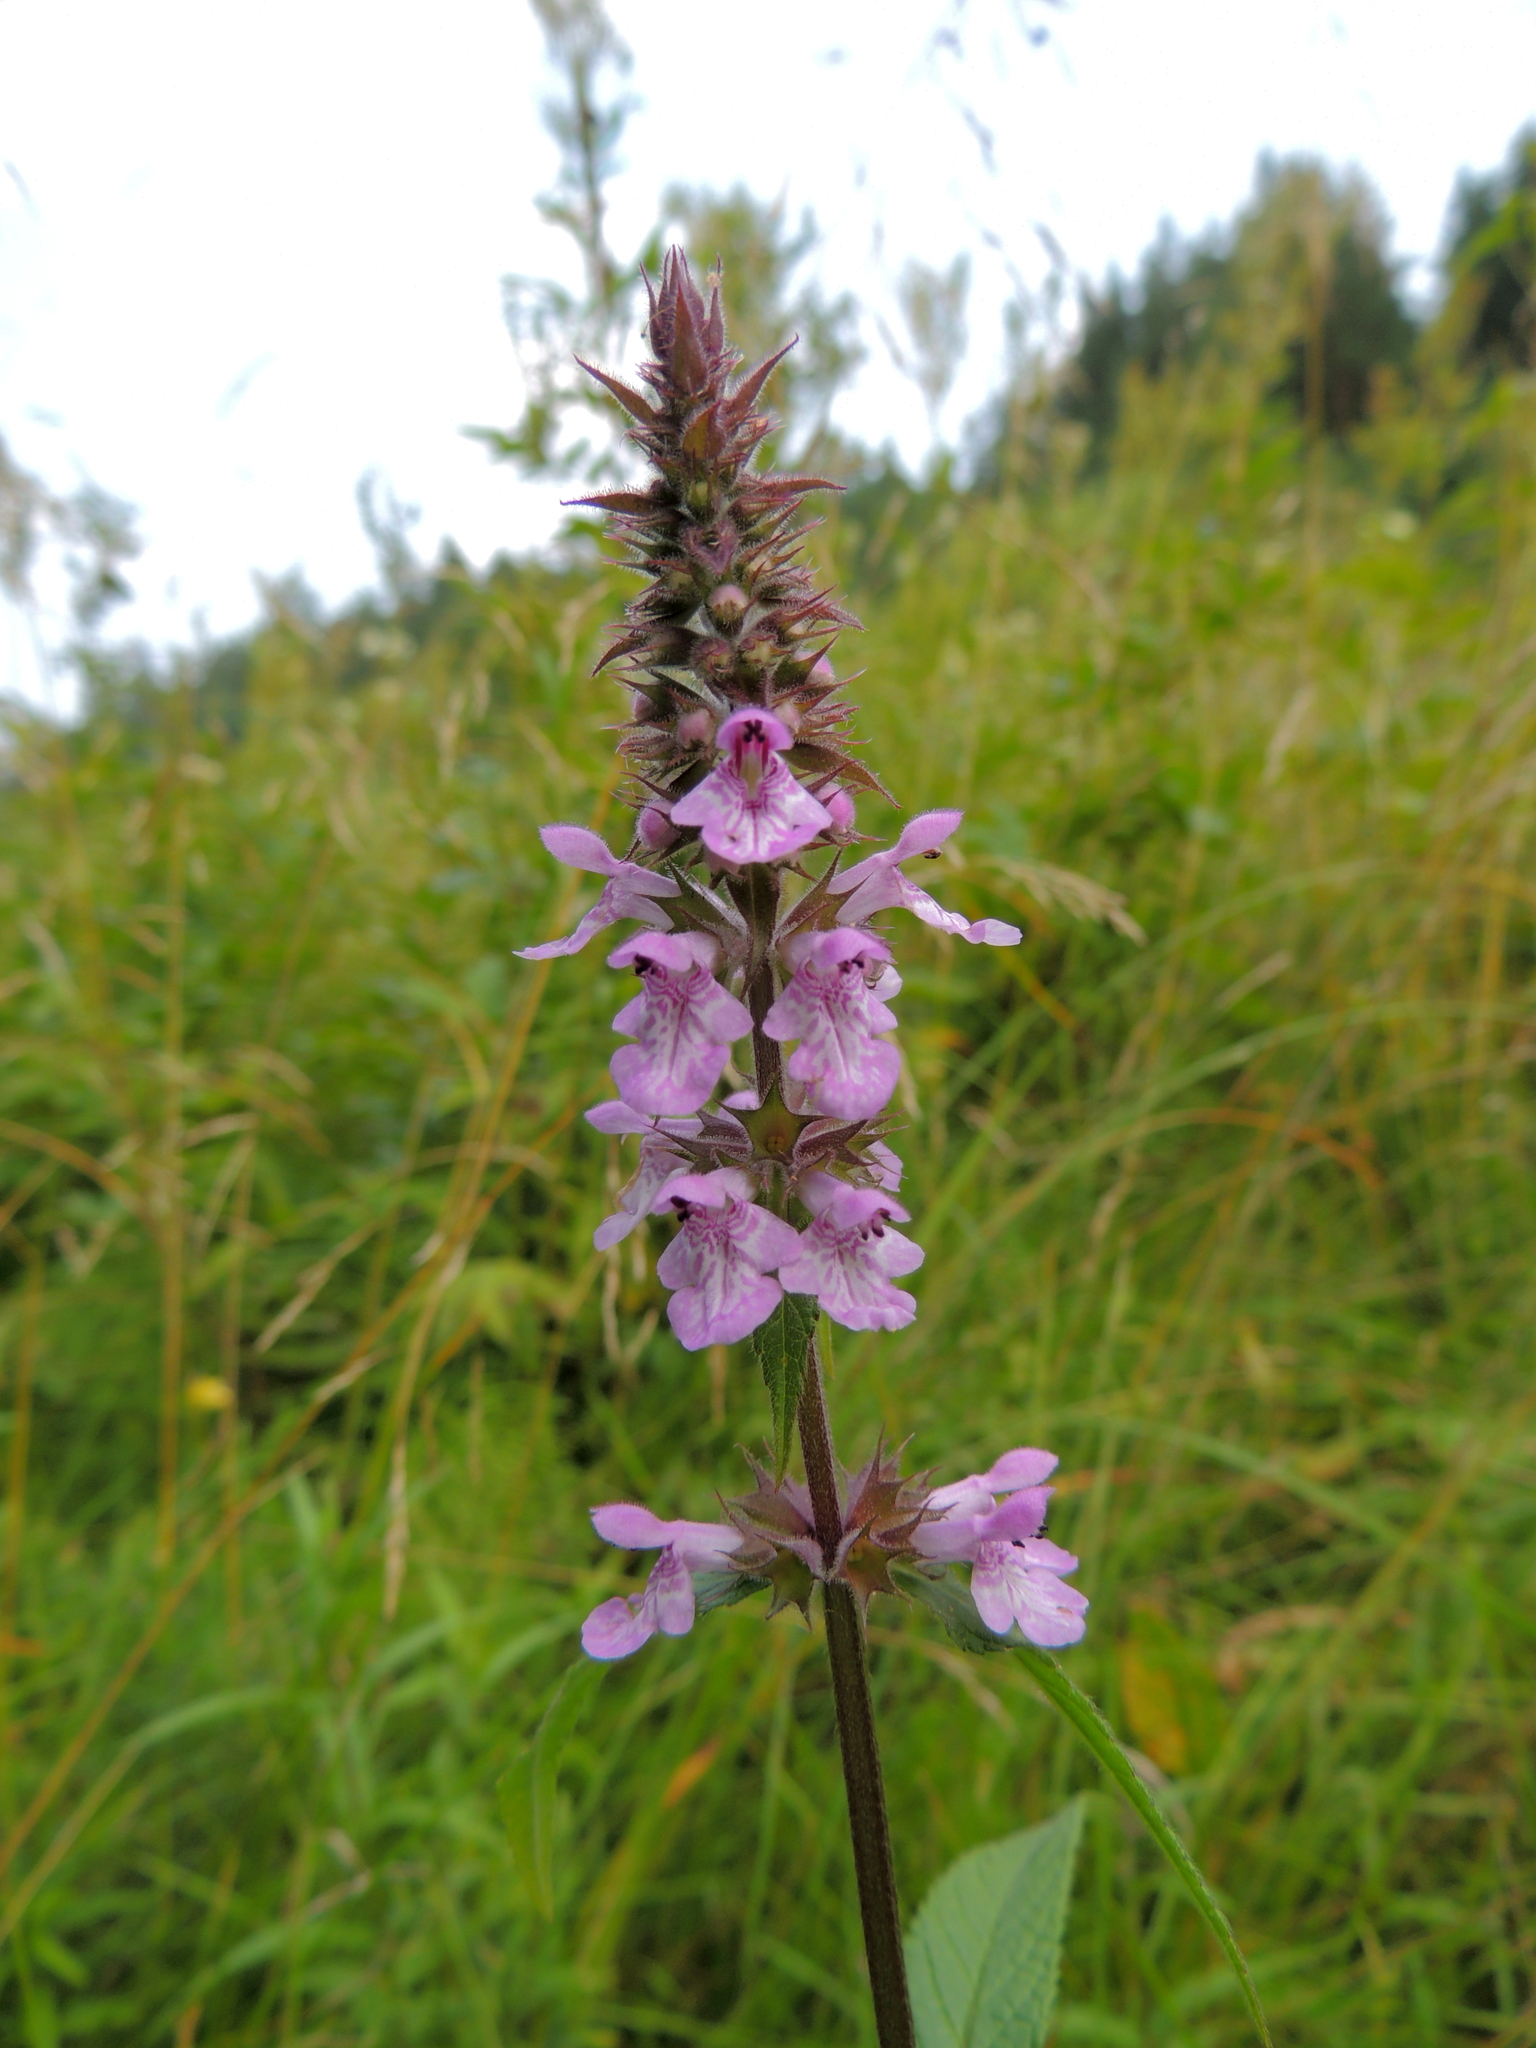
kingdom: Plantae
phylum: Tracheophyta
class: Magnoliopsida
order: Lamiales
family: Lamiaceae
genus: Stachys
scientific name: Stachys palustris
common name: Marsh woundwort
